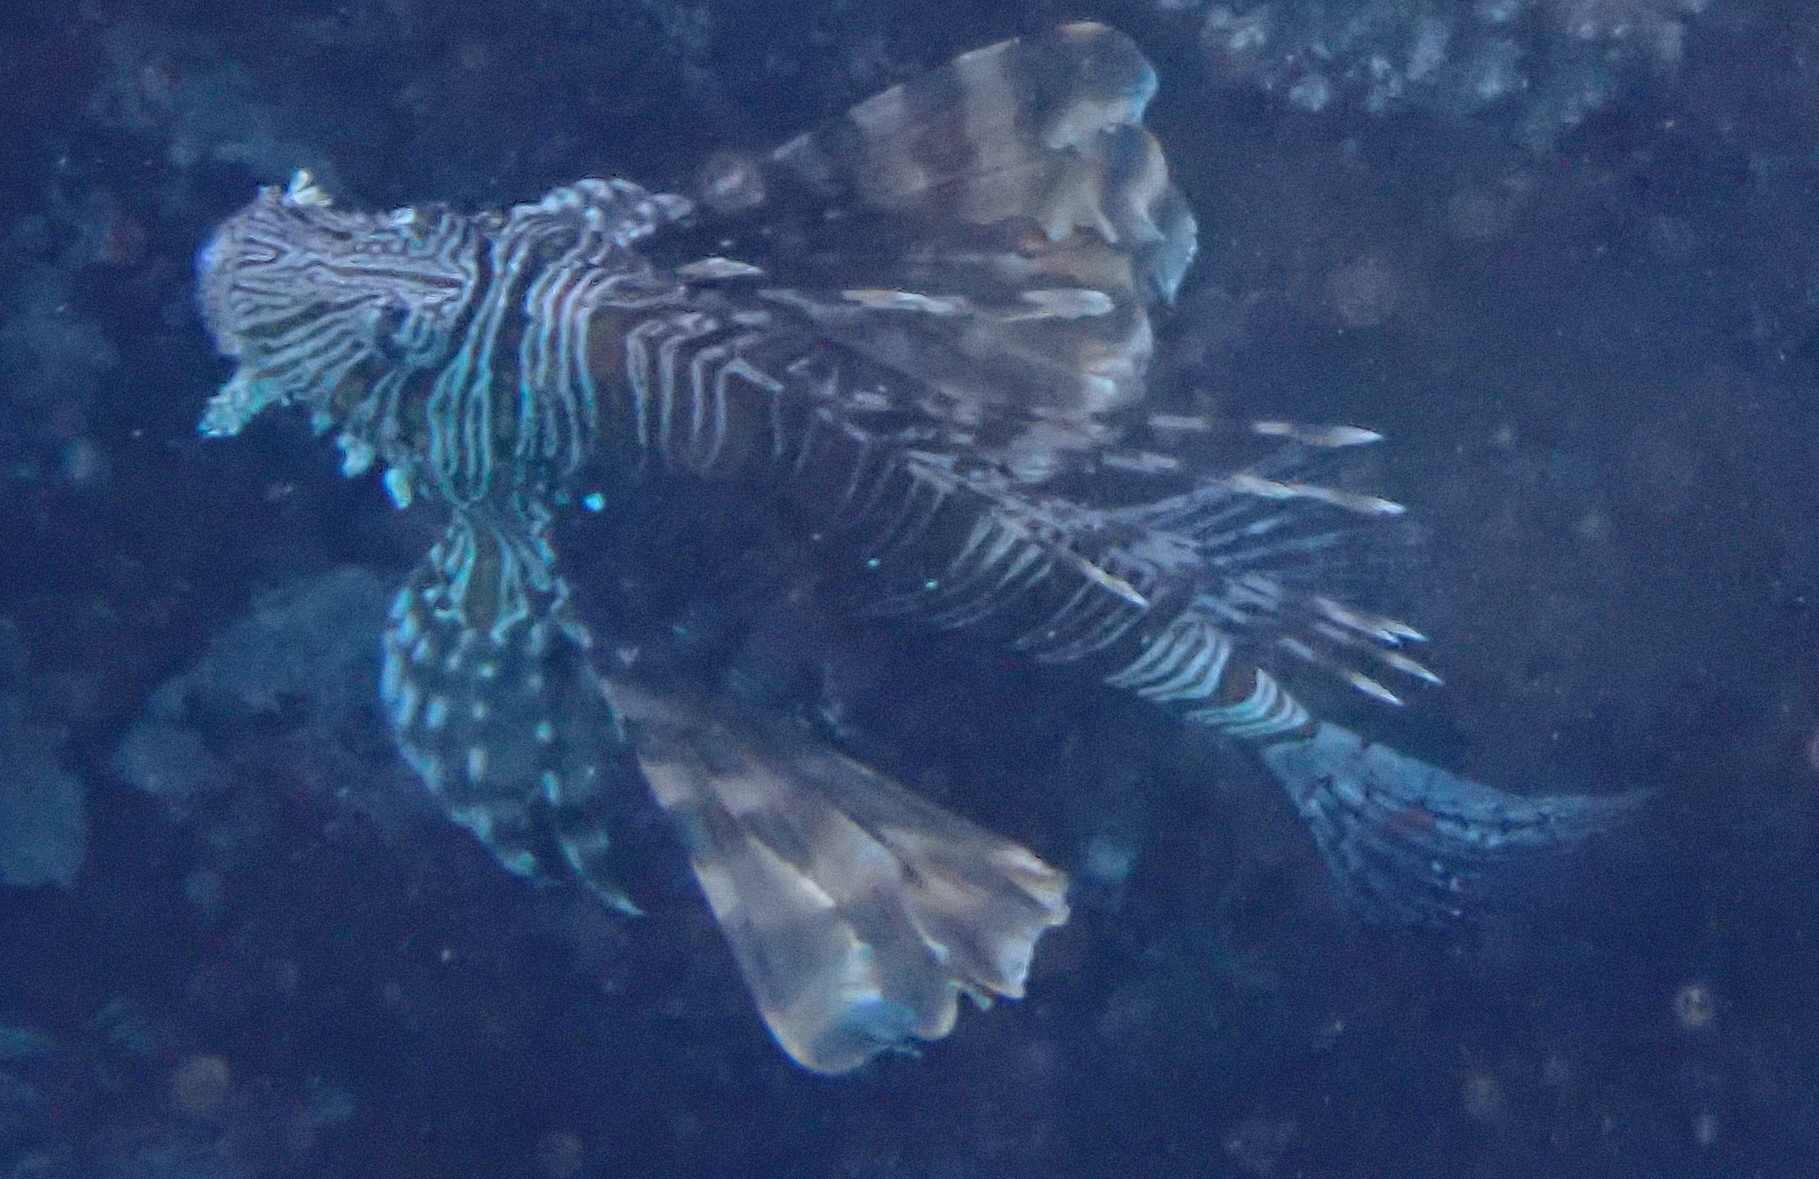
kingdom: Animalia
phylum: Chordata
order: Scorpaeniformes
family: Scorpaenidae
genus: Pterois
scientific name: Pterois miles
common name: Devil firefish
